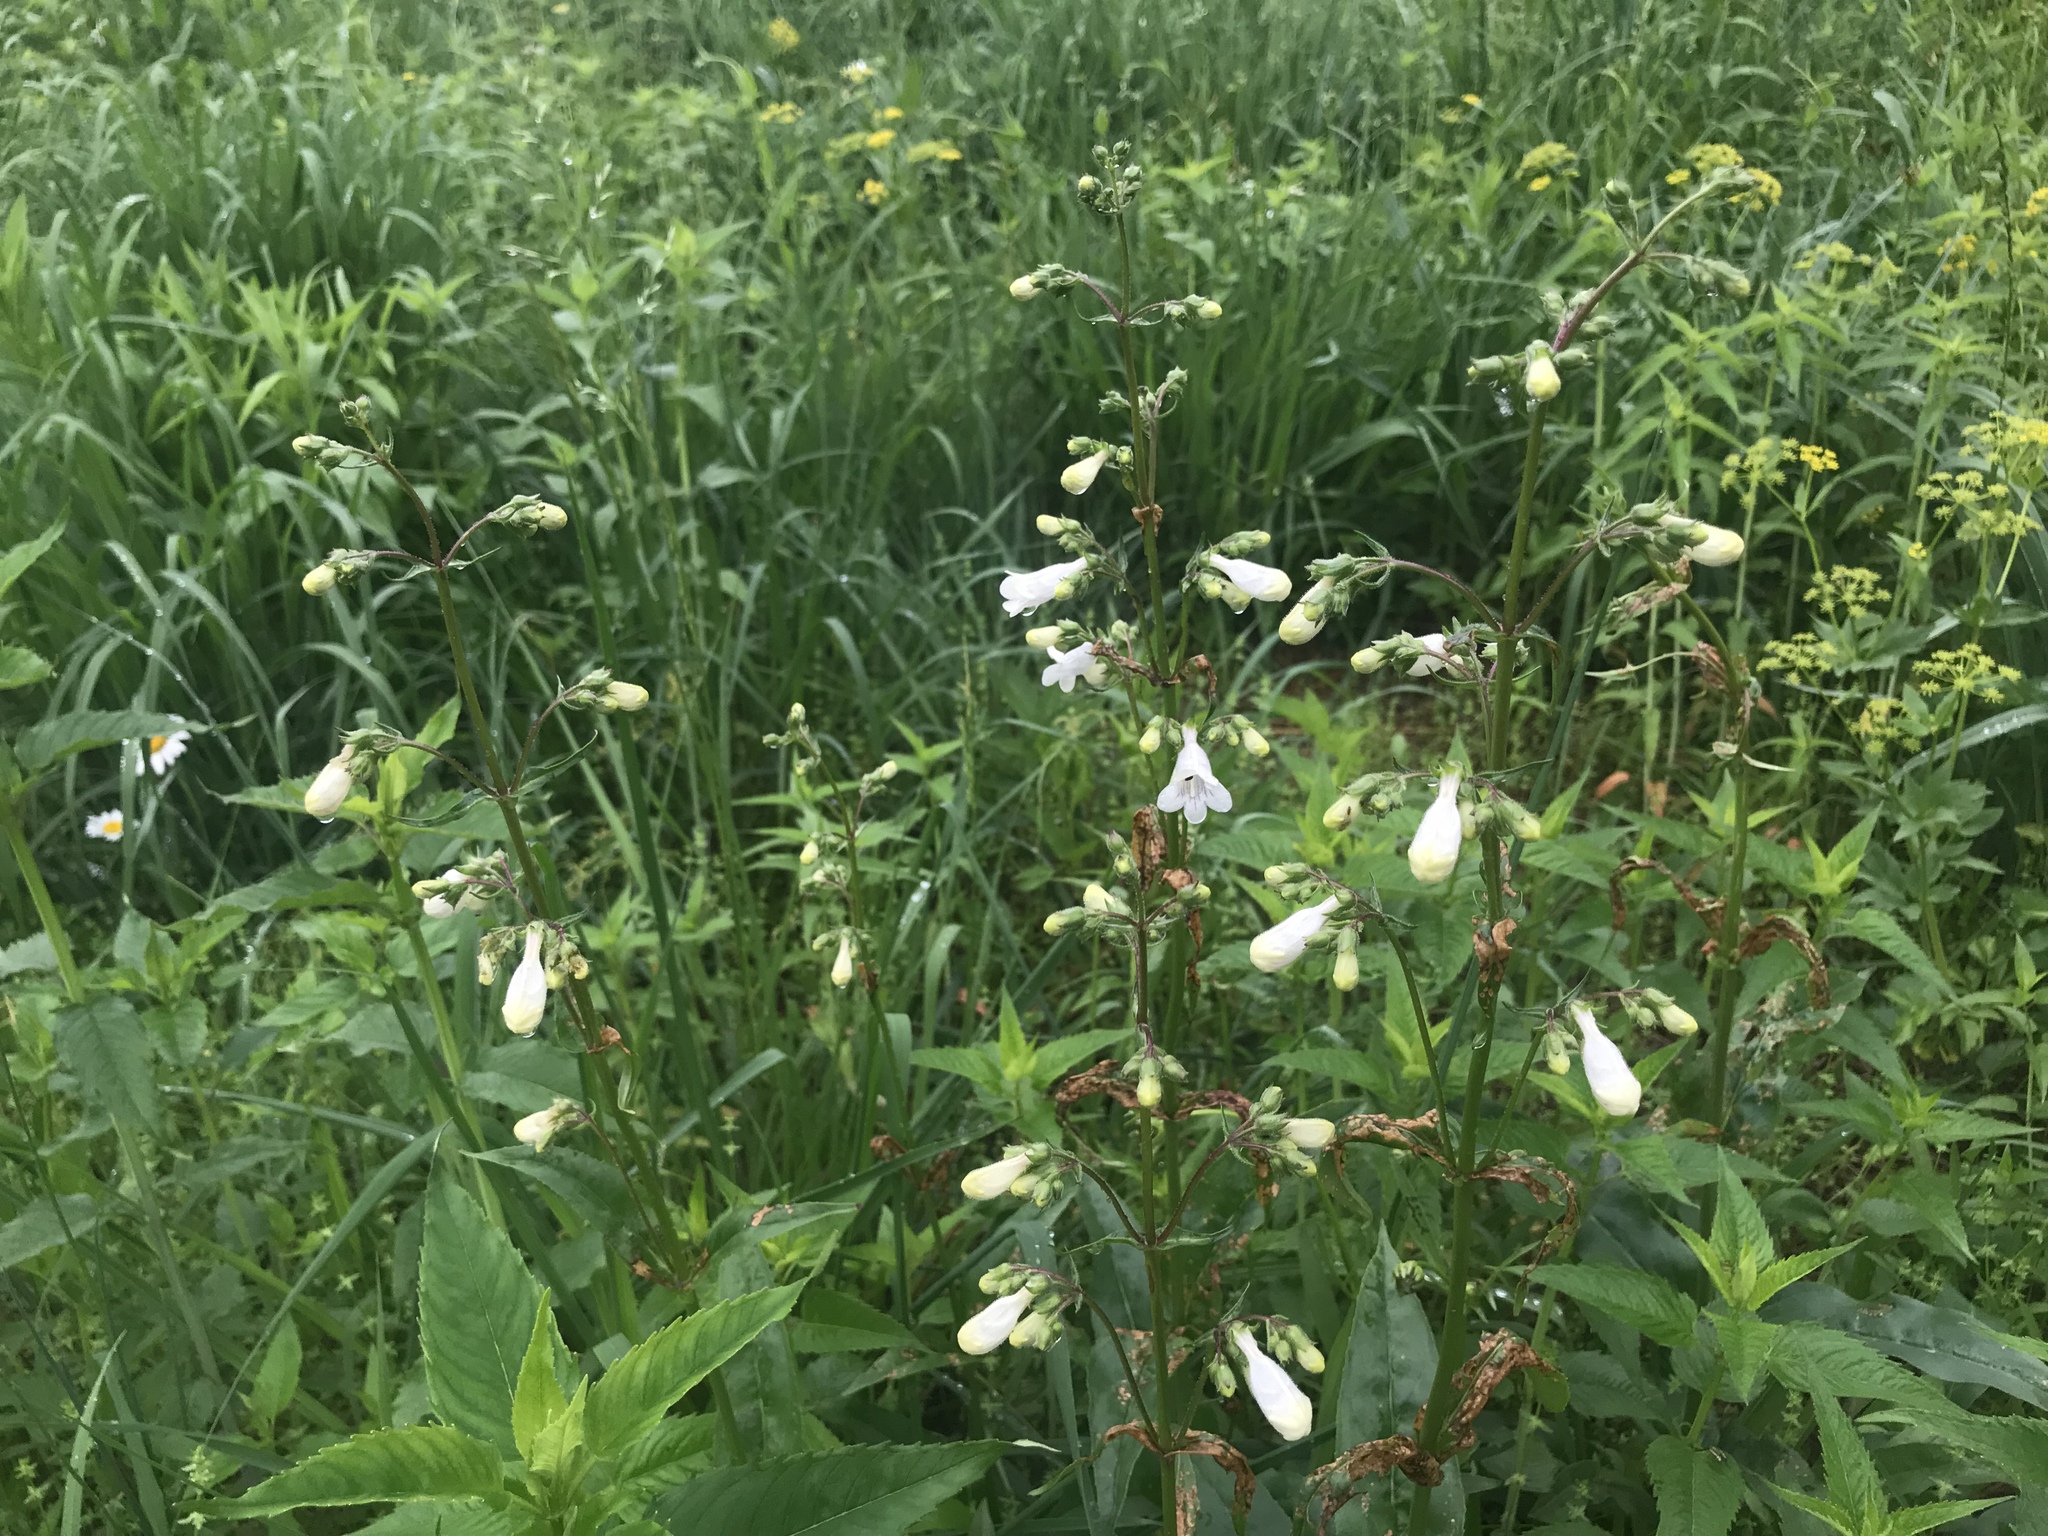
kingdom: Plantae
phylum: Tracheophyta
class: Magnoliopsida
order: Lamiales
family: Plantaginaceae
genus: Penstemon
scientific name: Penstemon digitalis
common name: Foxglove beardtongue
